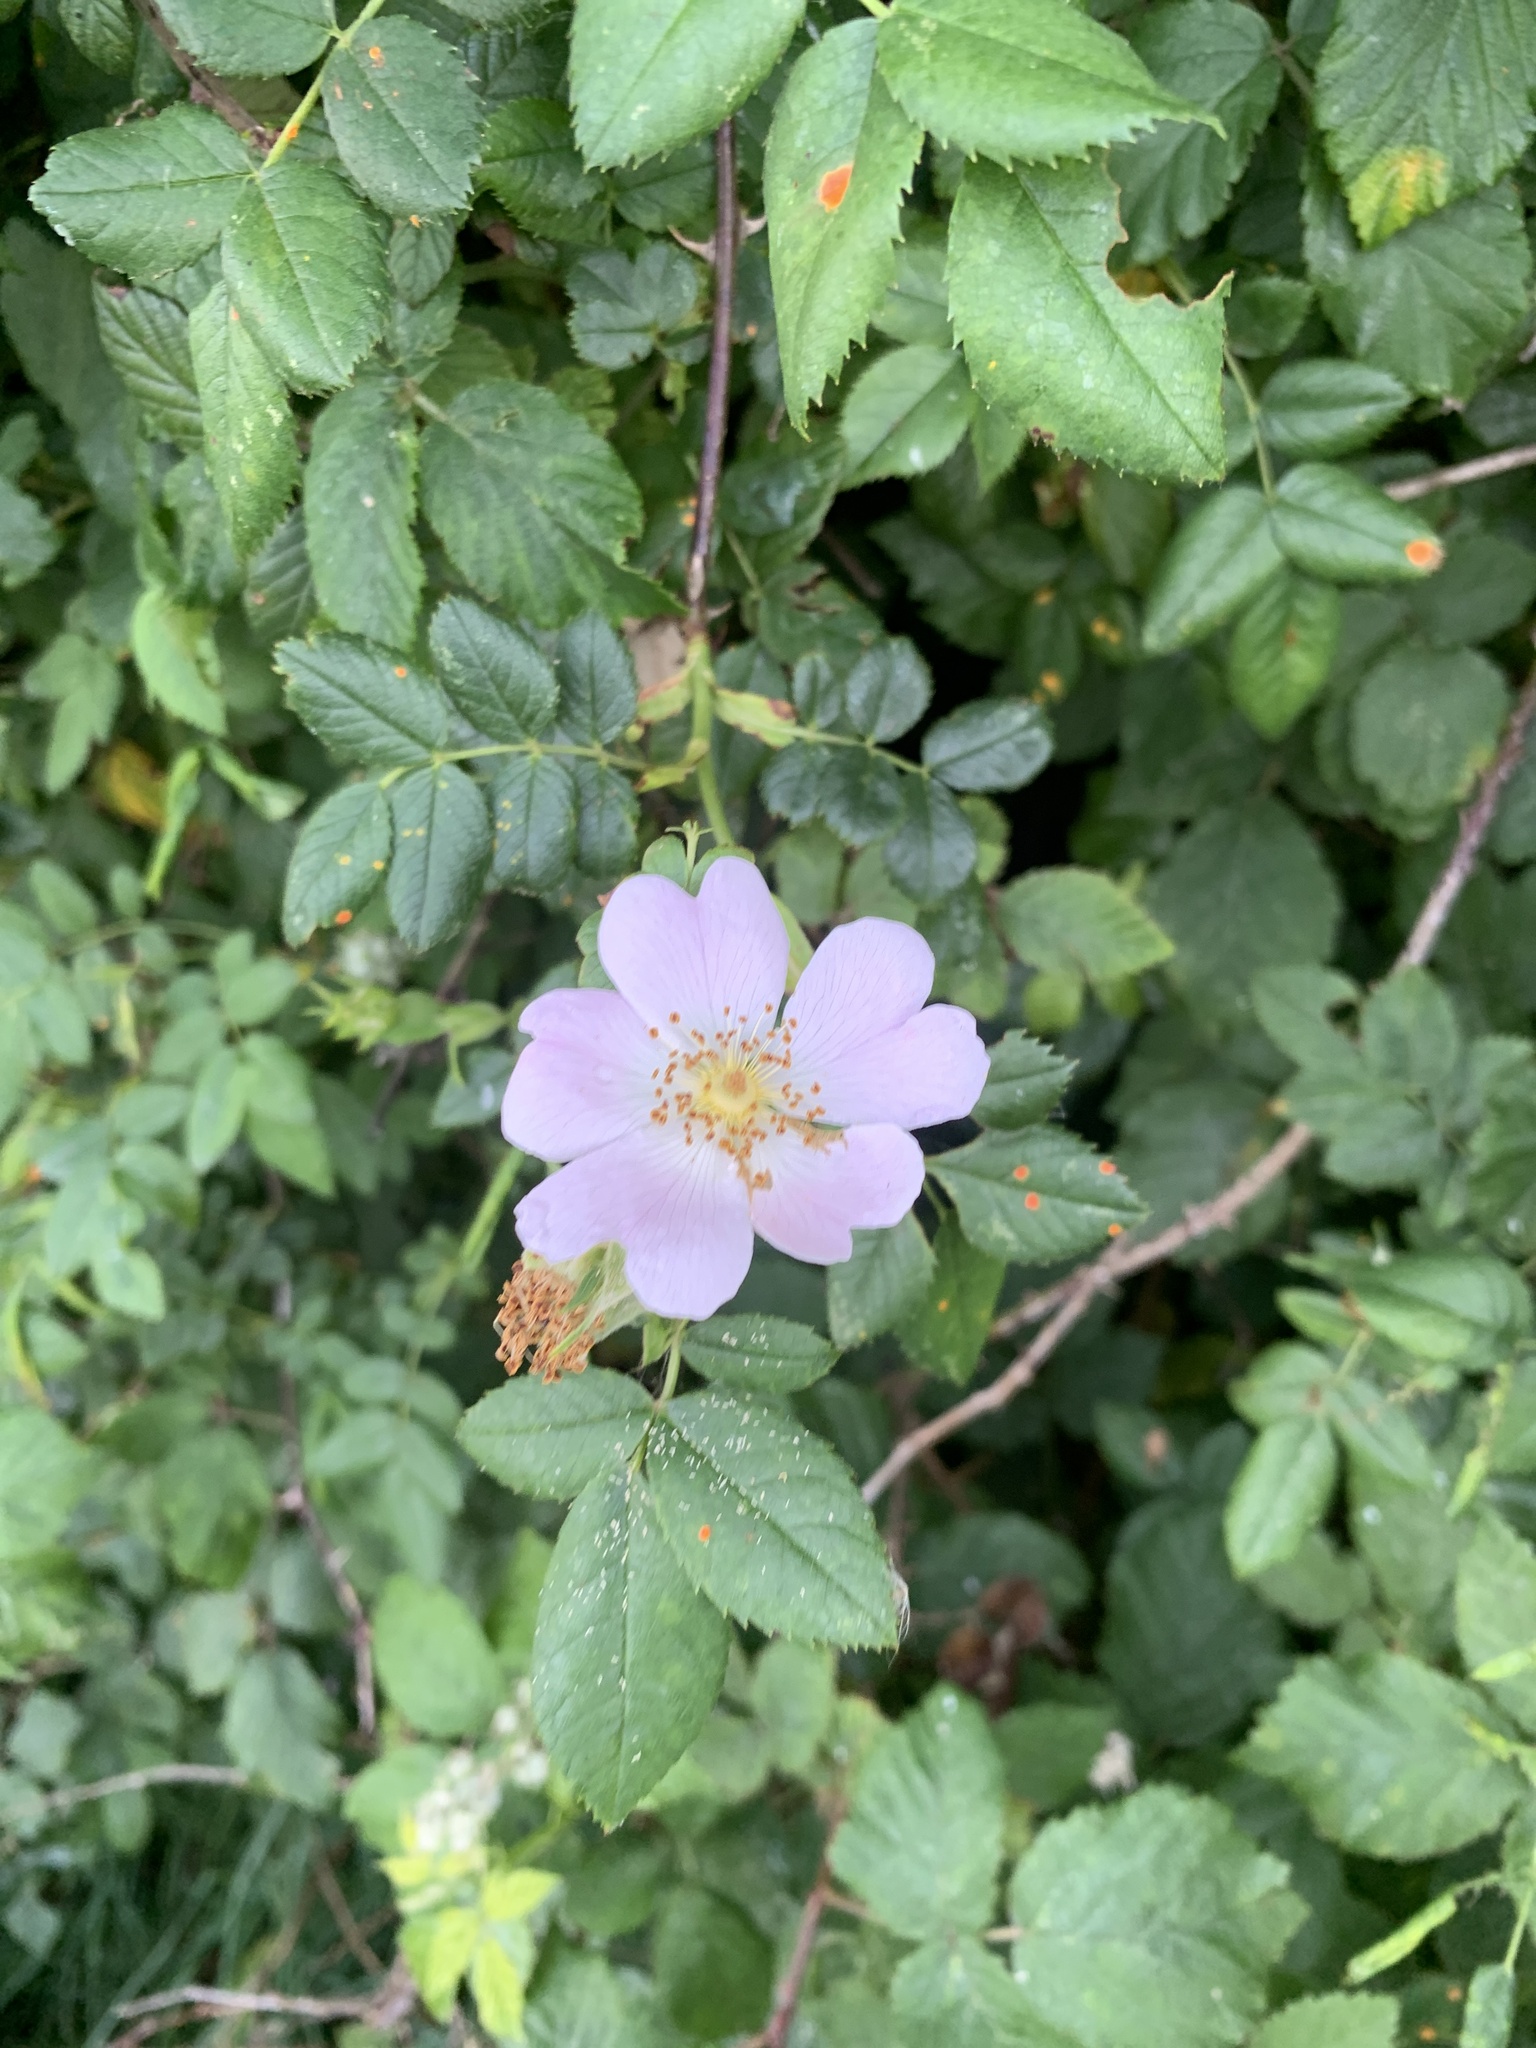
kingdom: Plantae
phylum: Tracheophyta
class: Magnoliopsida
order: Rosales
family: Rosaceae
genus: Rosa
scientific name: Rosa canina
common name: Dog rose
